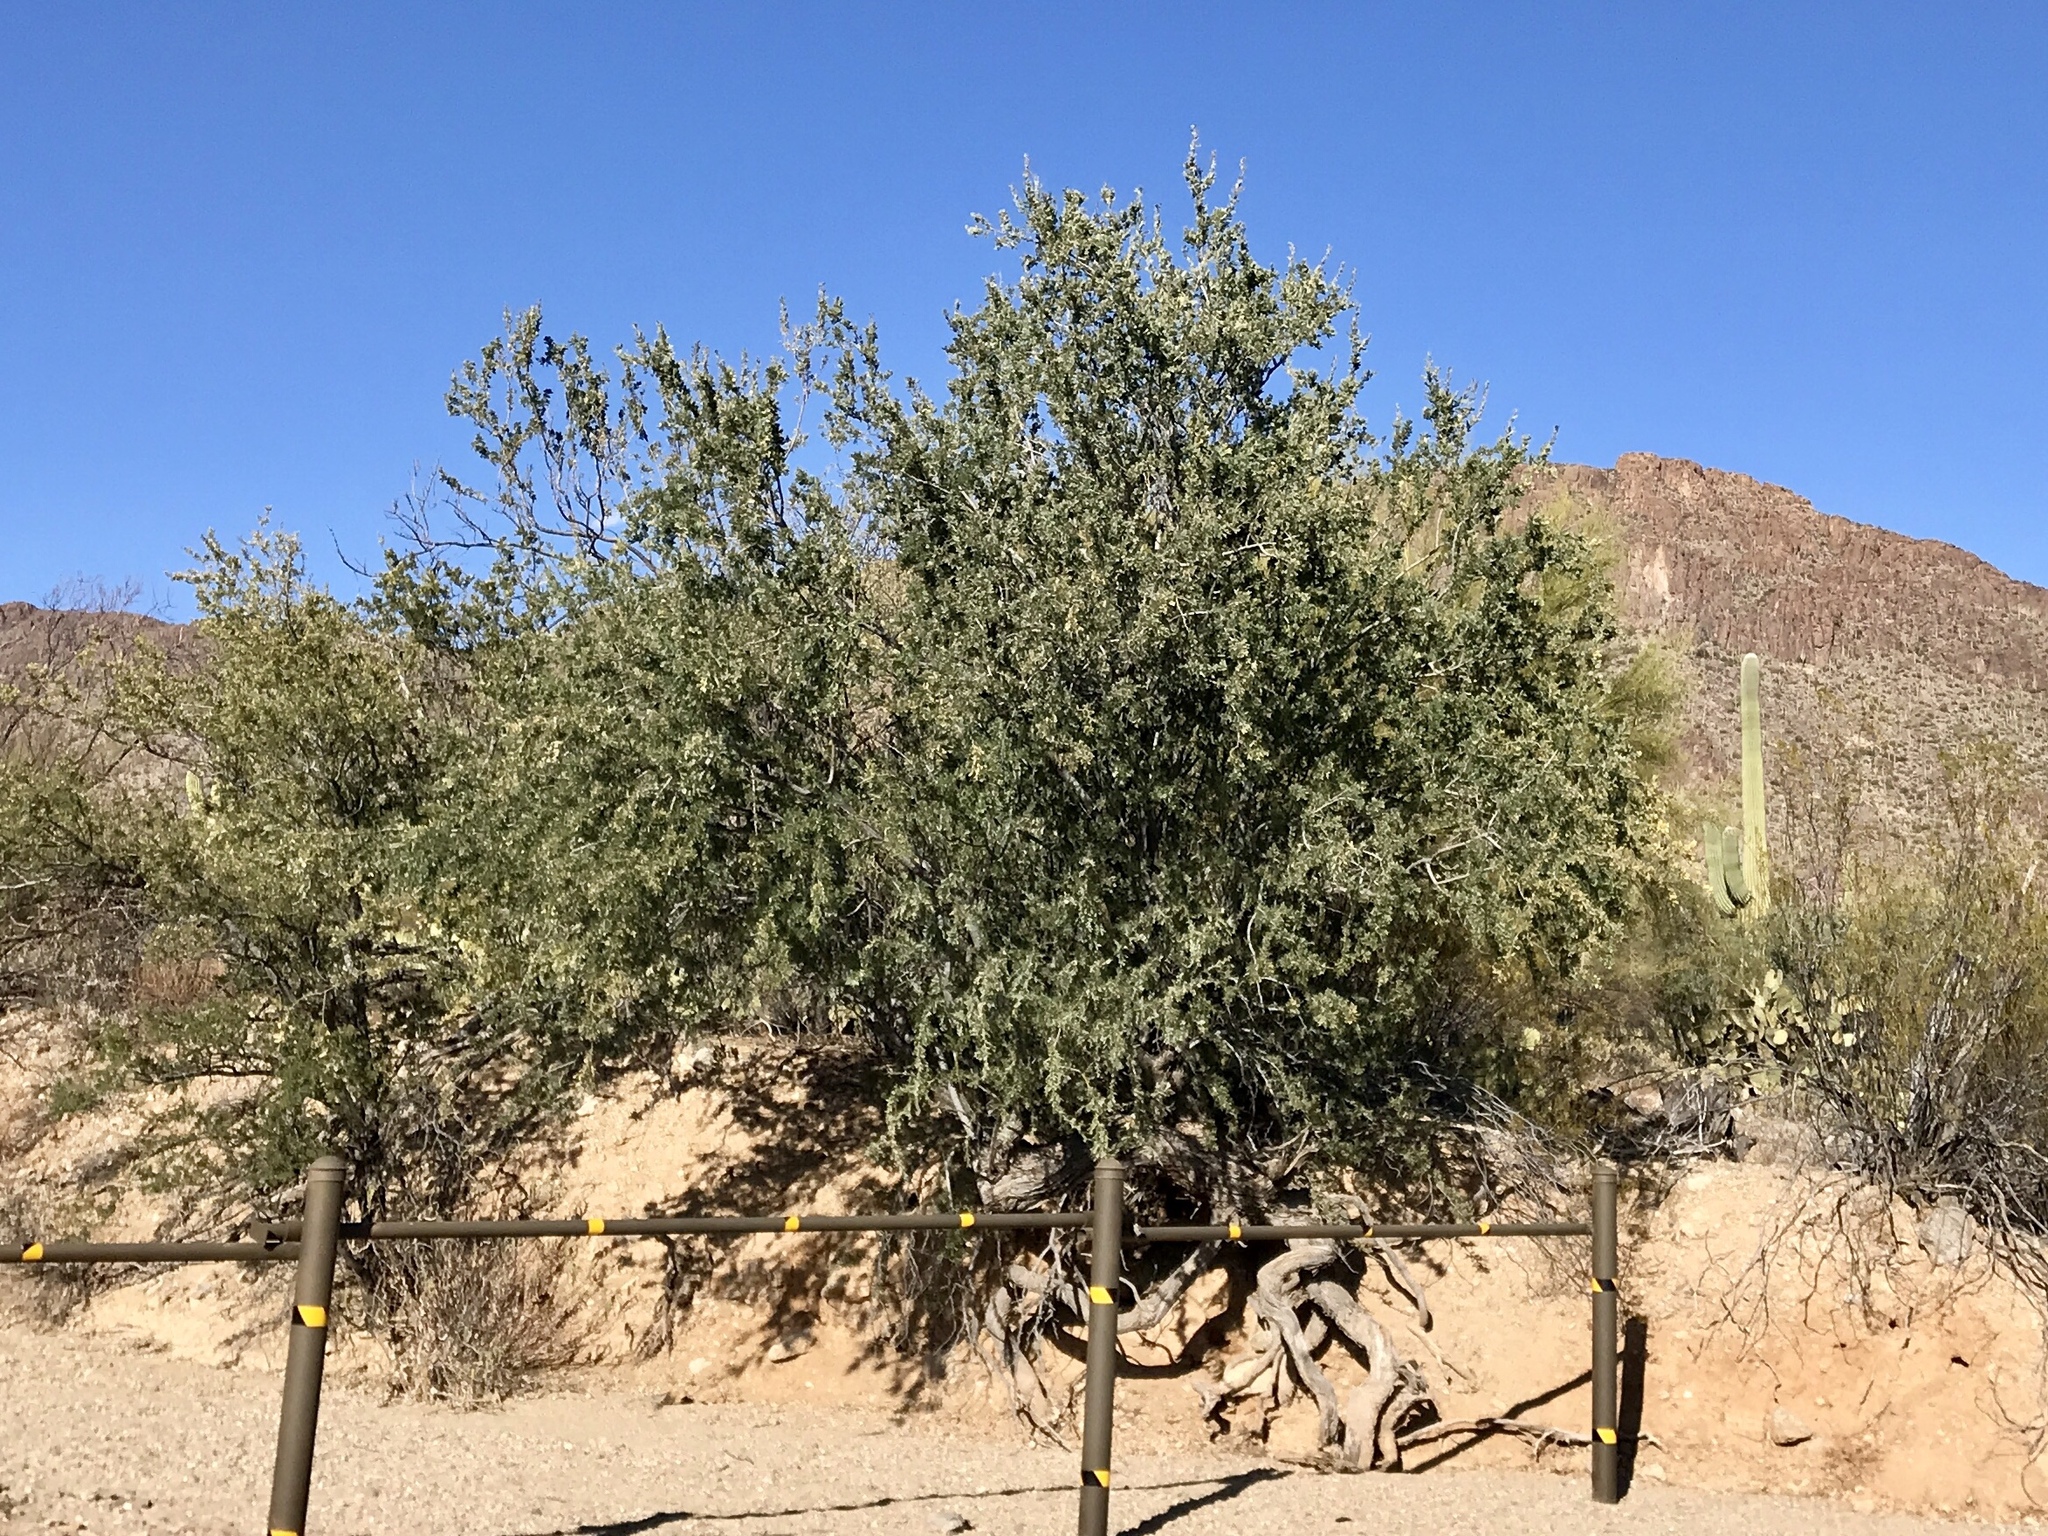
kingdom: Plantae
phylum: Tracheophyta
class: Magnoliopsida
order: Fabales
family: Fabaceae
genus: Olneya
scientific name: Olneya tesota
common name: Desert ironwood
